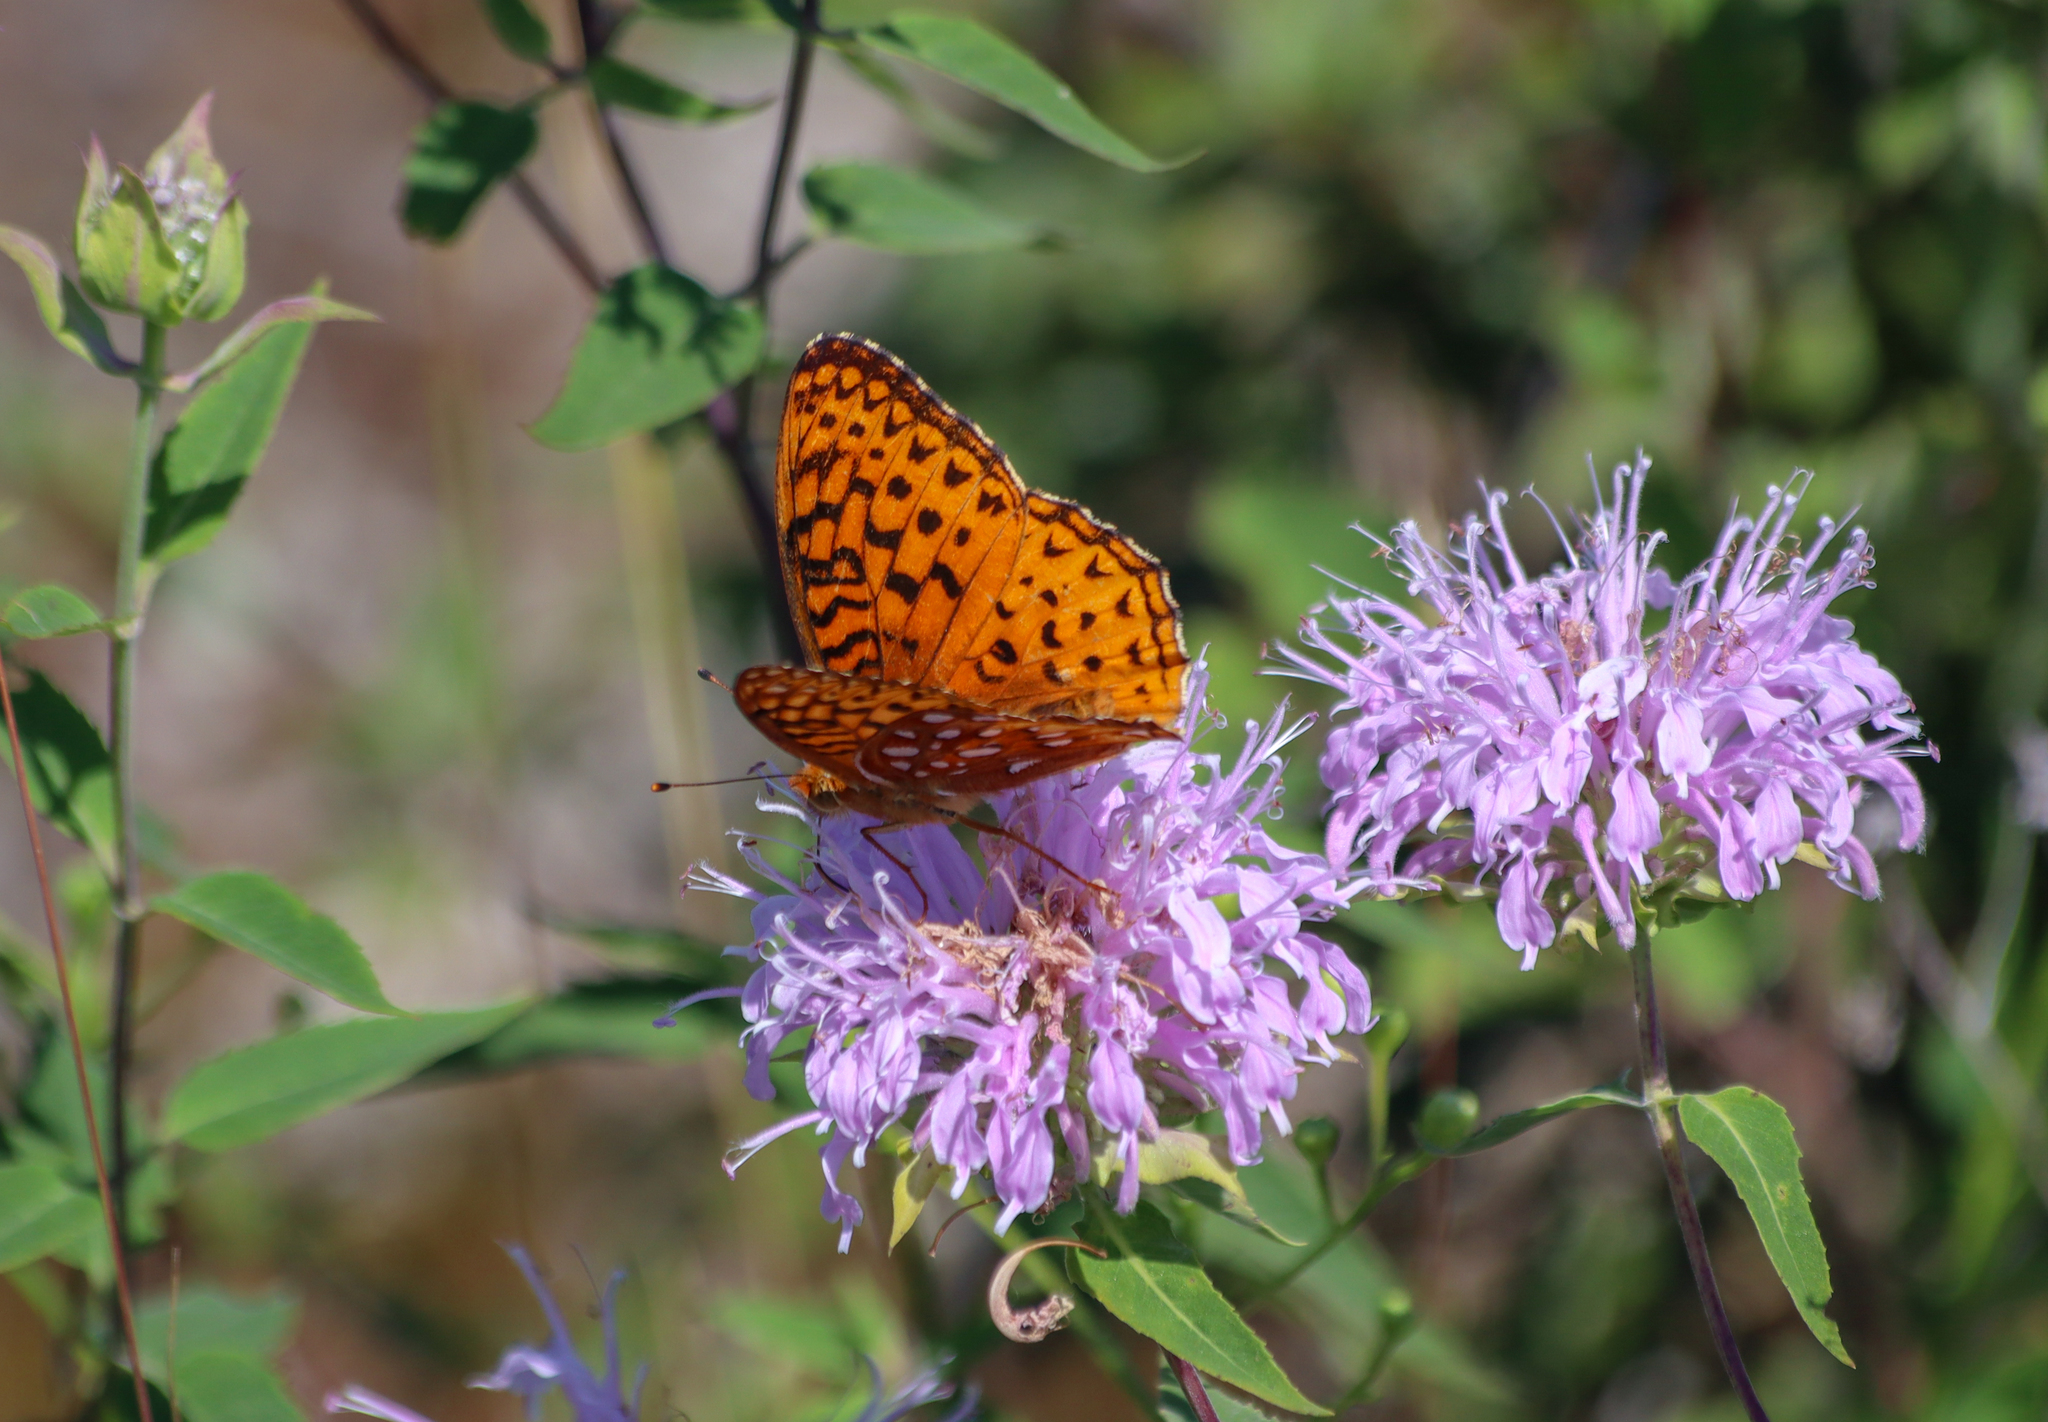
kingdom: Animalia
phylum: Arthropoda
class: Insecta
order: Lepidoptera
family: Nymphalidae
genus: Speyeria
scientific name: Speyeria aphrodite
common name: Aphrodite friitllary
